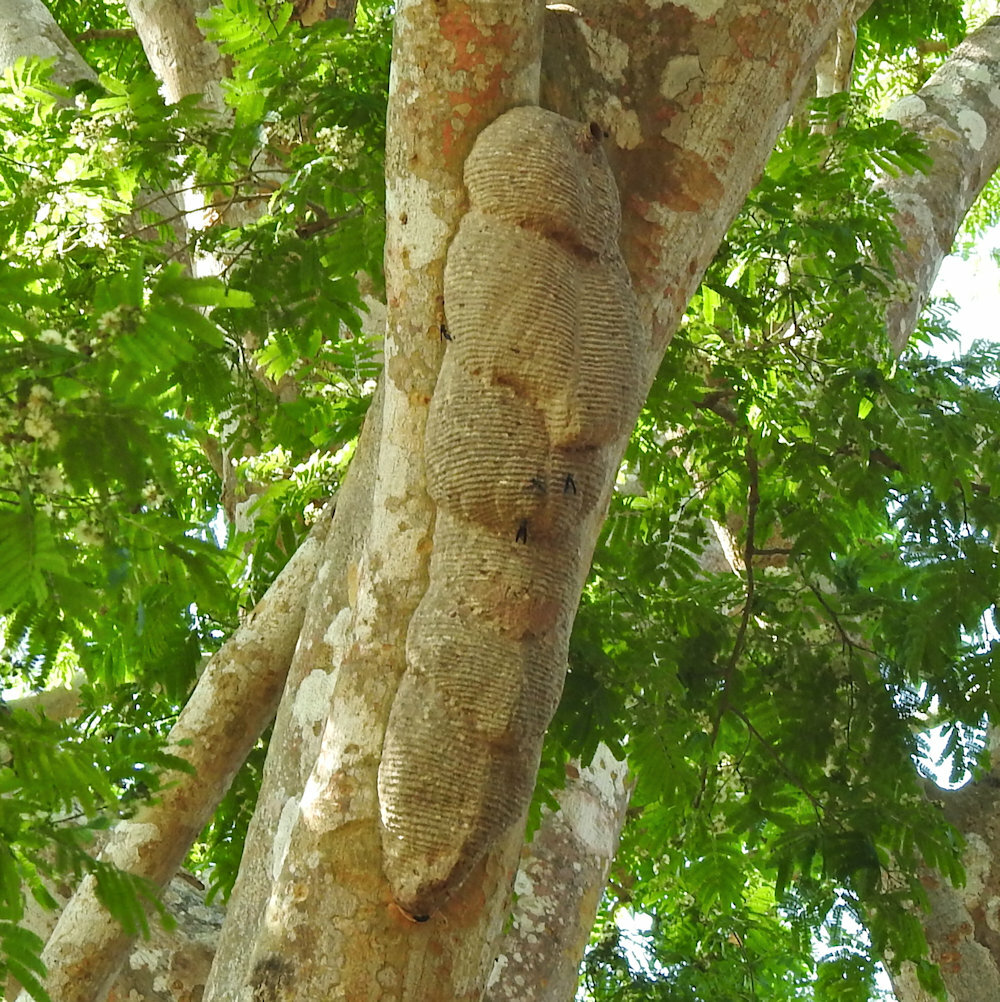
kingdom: Animalia
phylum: Arthropoda
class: Insecta
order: Hymenoptera
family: Vespidae
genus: Synoeca
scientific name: Synoeca septentrionalis
